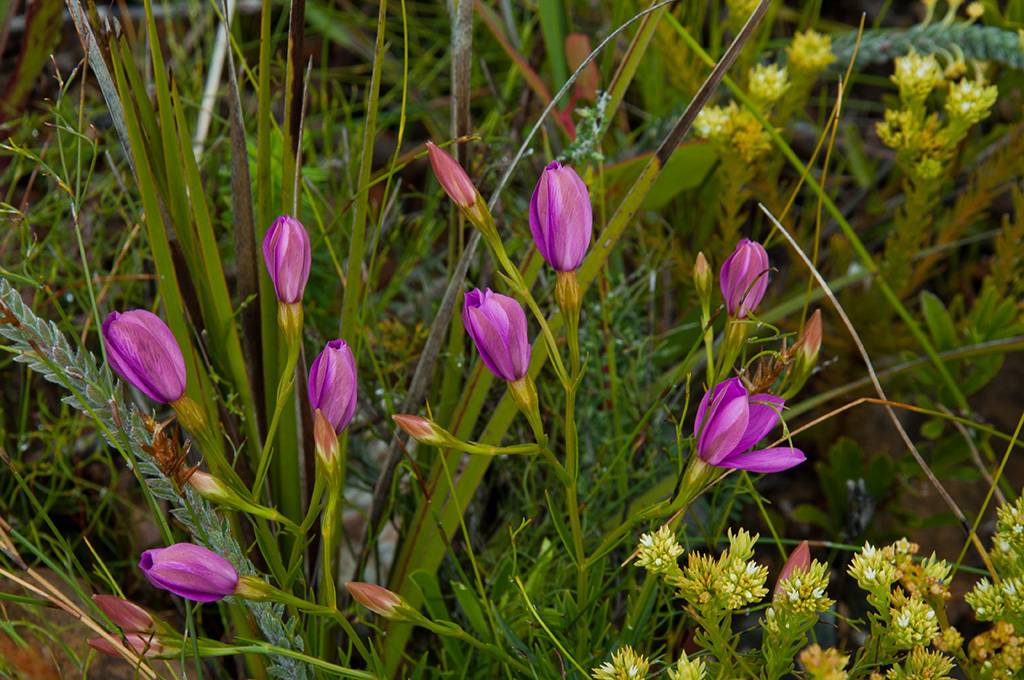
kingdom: Plantae
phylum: Tracheophyta
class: Magnoliopsida
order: Gentianales
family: Gentianaceae
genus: Chironia
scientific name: Chironia jasminoides
